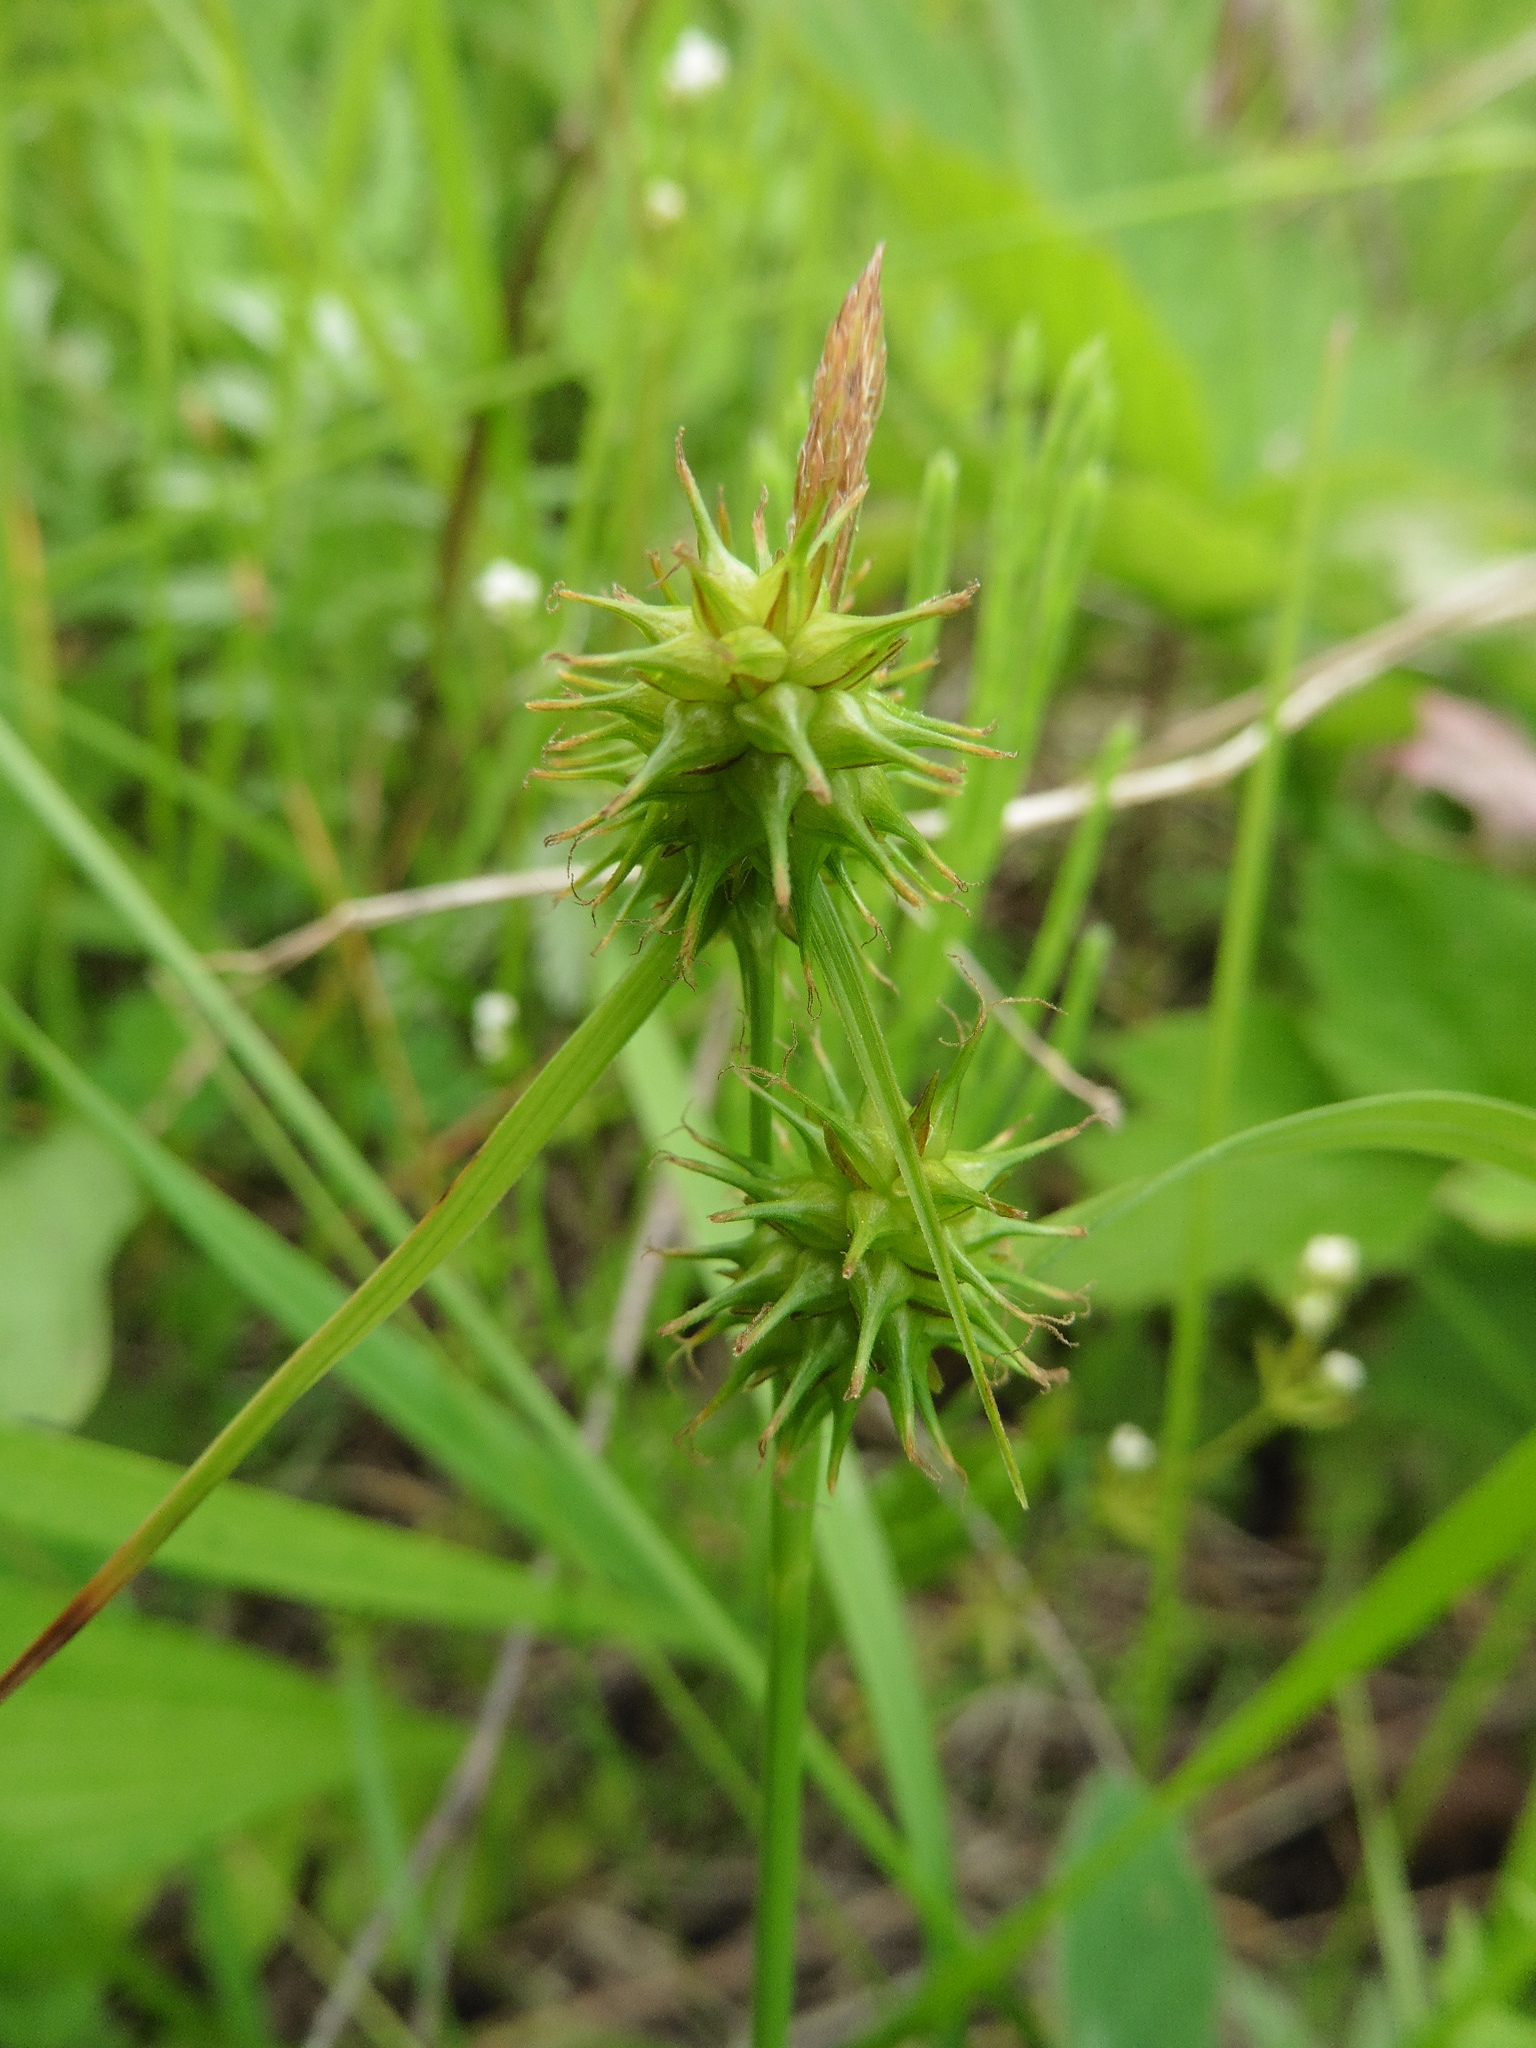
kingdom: Plantae
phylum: Tracheophyta
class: Liliopsida
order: Poales
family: Cyperaceae
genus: Carex
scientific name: Carex flava
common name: Large yellow-sedge
